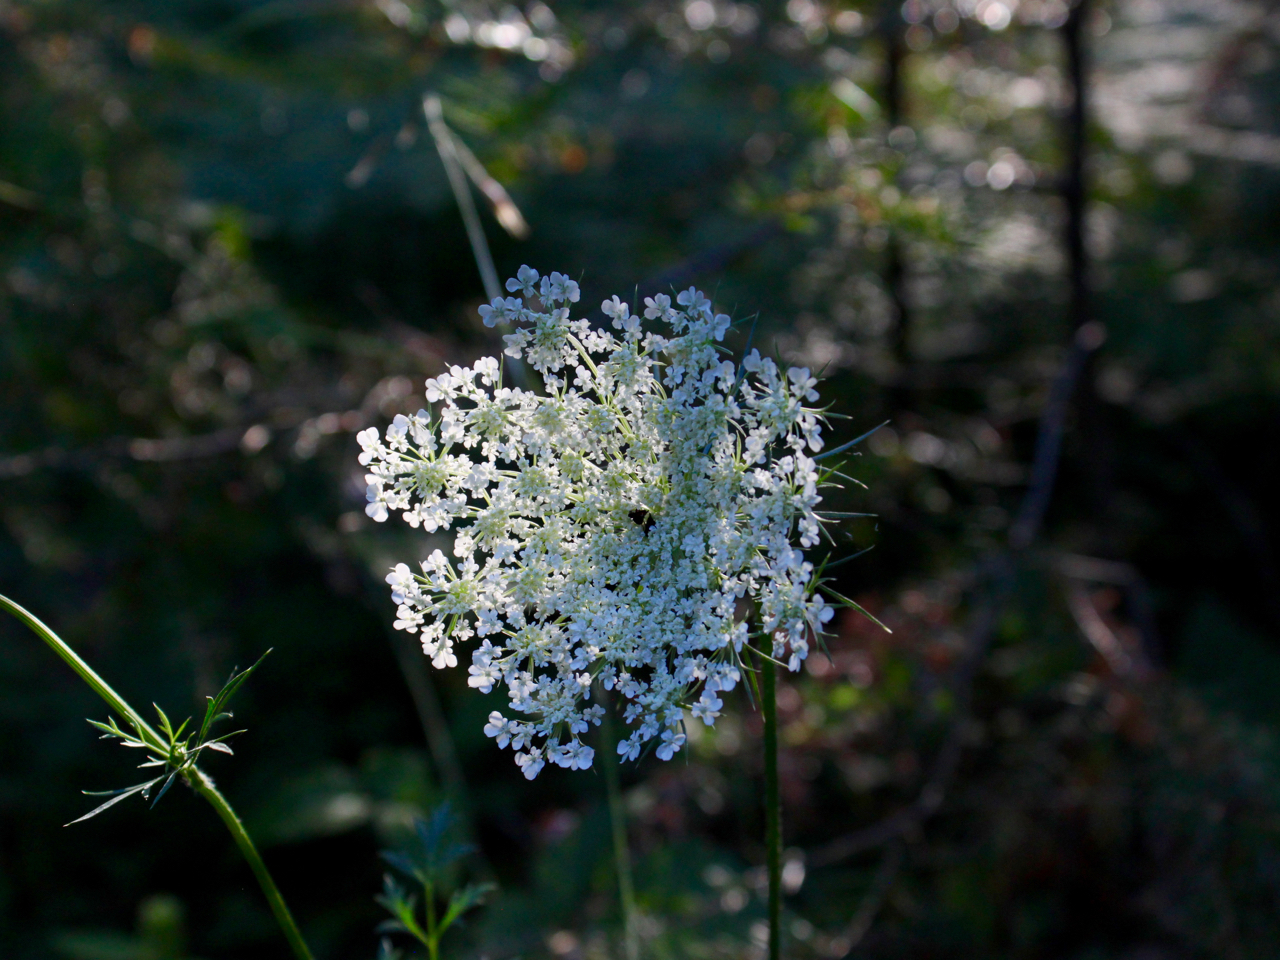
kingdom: Plantae
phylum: Tracheophyta
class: Magnoliopsida
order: Apiales
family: Apiaceae
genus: Daucus
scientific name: Daucus carota
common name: Wild carrot
